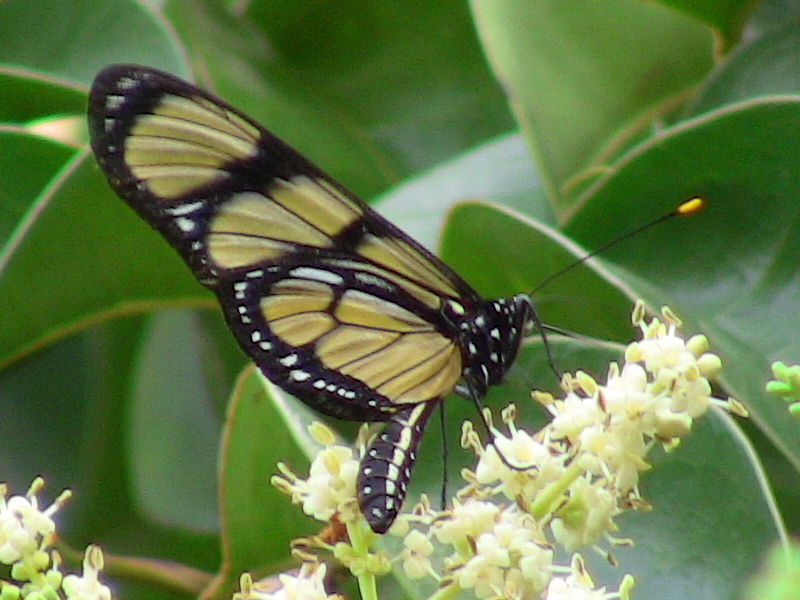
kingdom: Animalia
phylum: Arthropoda
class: Insecta
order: Lepidoptera
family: Nymphalidae
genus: Methona
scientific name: Methona themisto
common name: Themisto amberwing
